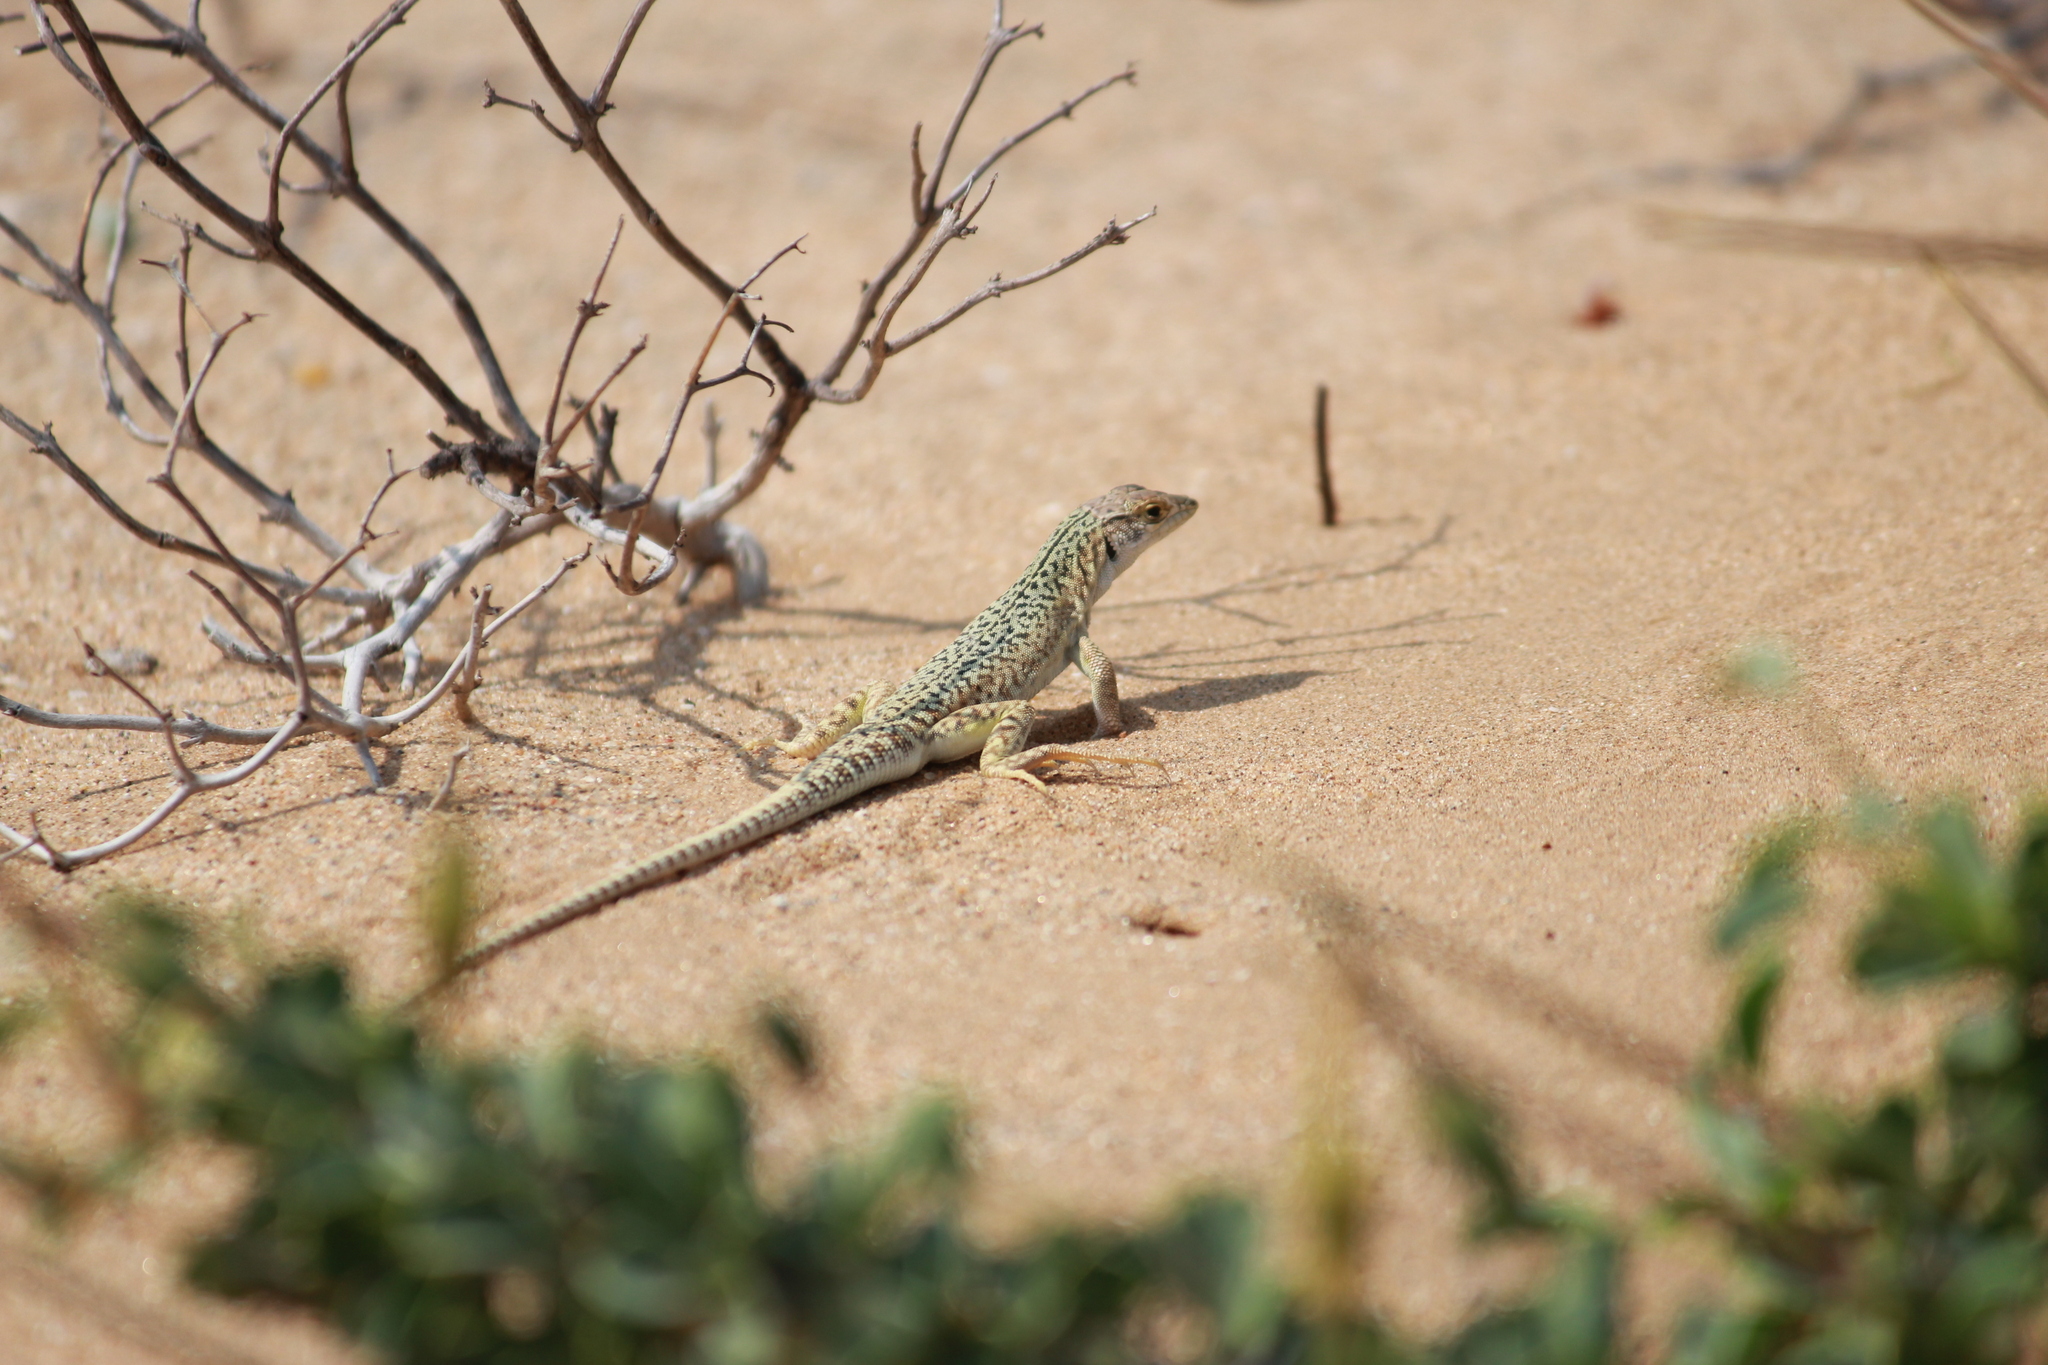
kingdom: Animalia
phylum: Chordata
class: Squamata
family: Lacertidae
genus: Meroles
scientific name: Meroles suborbitalis
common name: Spotted sand lizard
